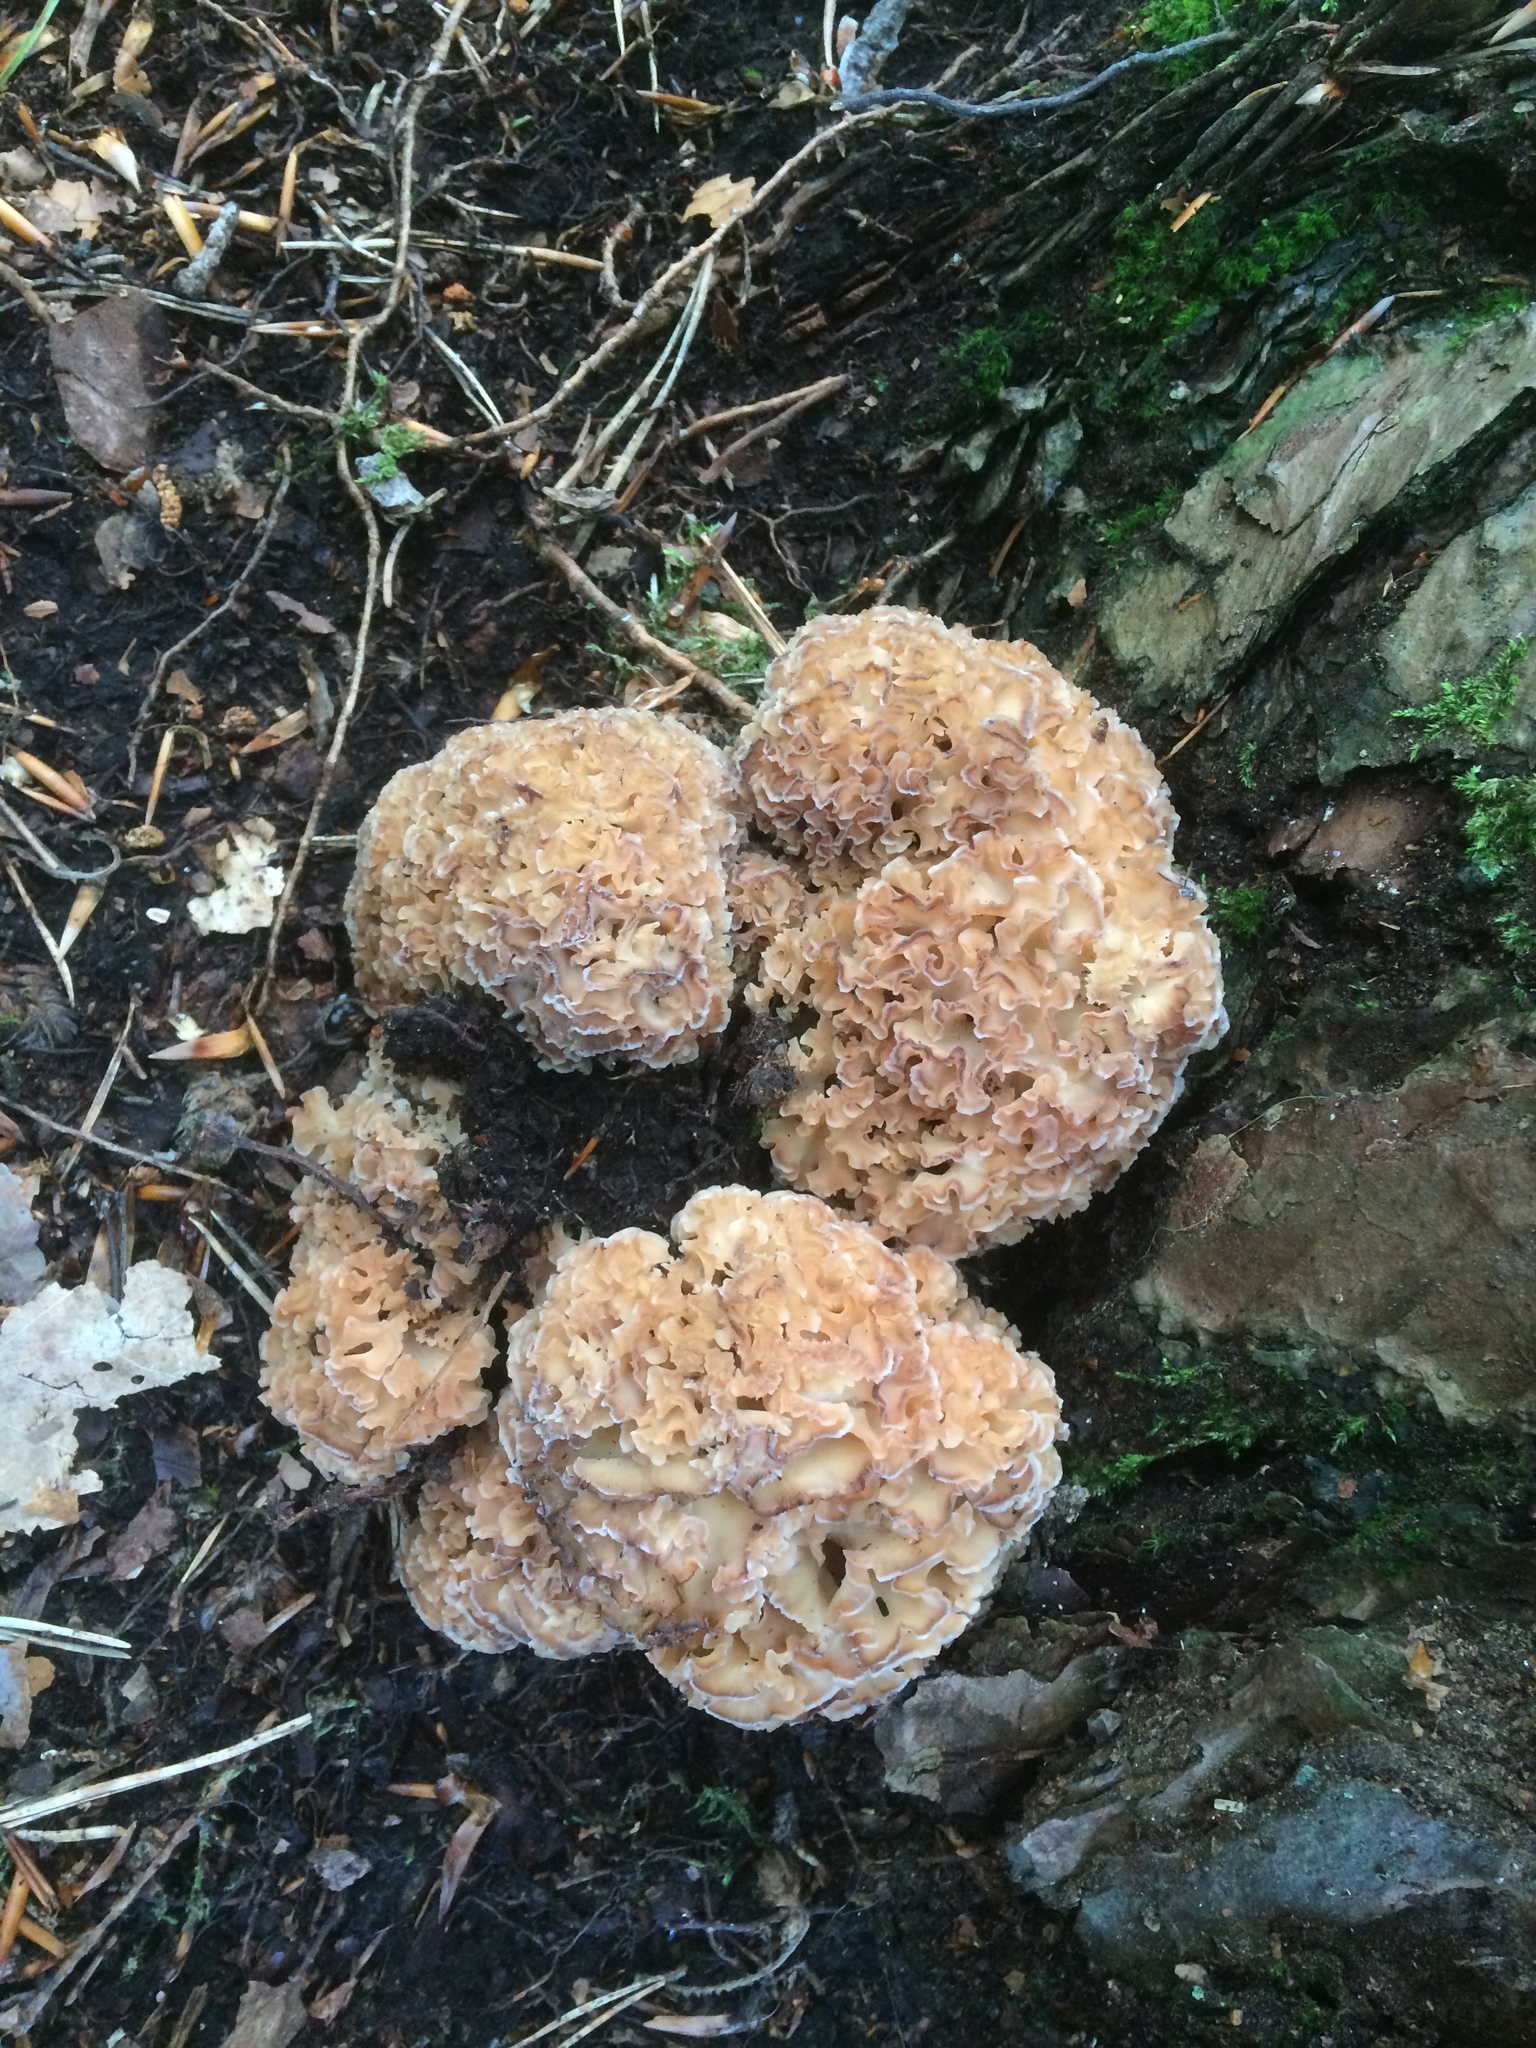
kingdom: Fungi
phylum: Basidiomycota
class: Agaricomycetes
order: Polyporales
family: Sparassidaceae
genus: Sparassis
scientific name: Sparassis crispa
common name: Brain fungus
